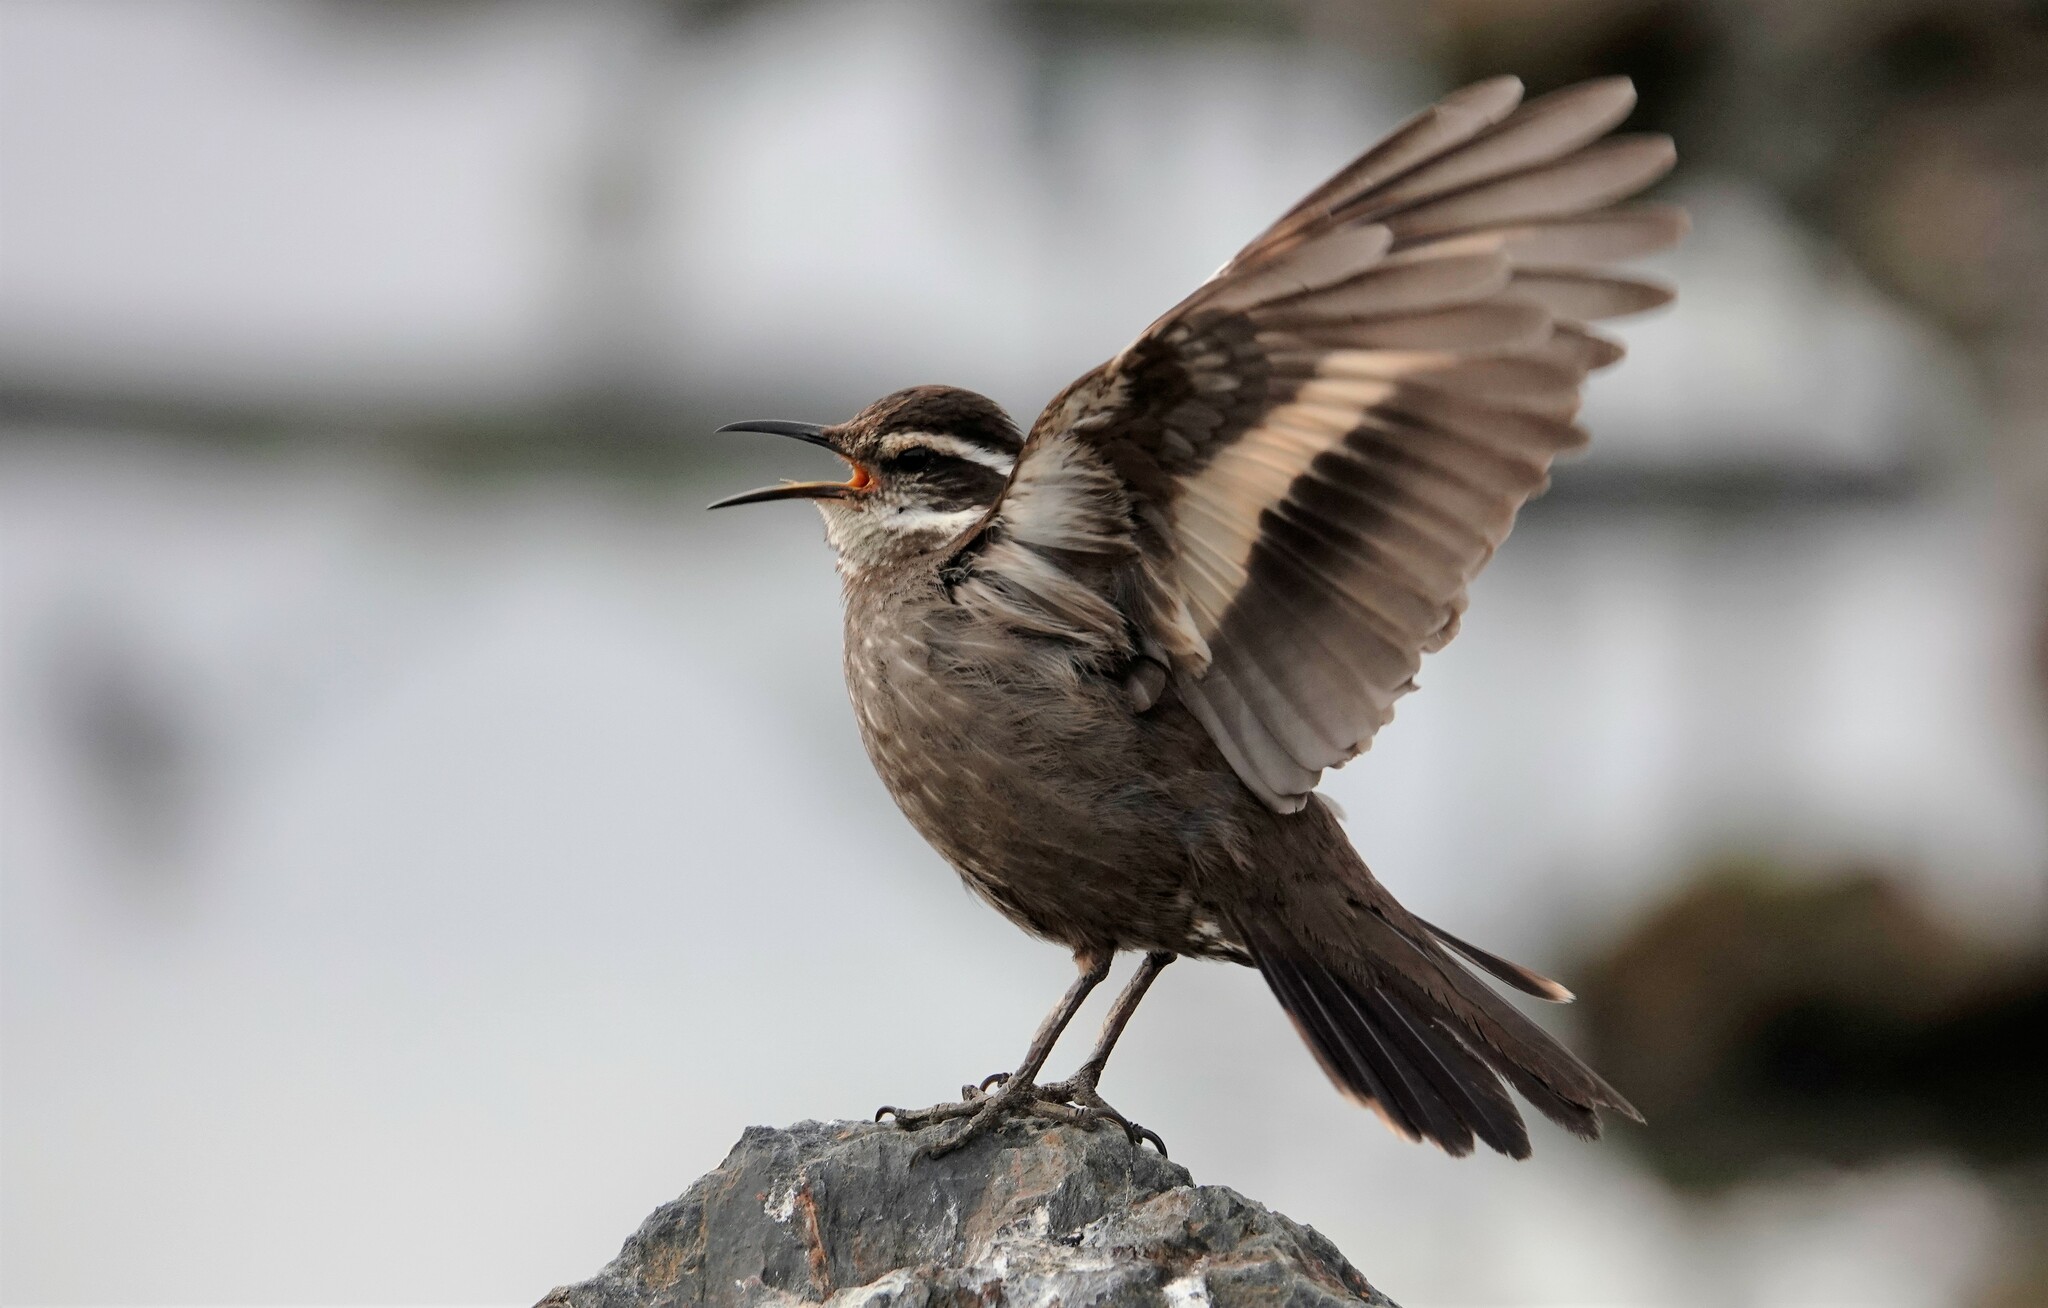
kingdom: Animalia
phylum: Chordata
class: Aves
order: Passeriformes
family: Furnariidae
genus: Cinclodes
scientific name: Cinclodes patagonicus
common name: Dark-bellied cinclodes
